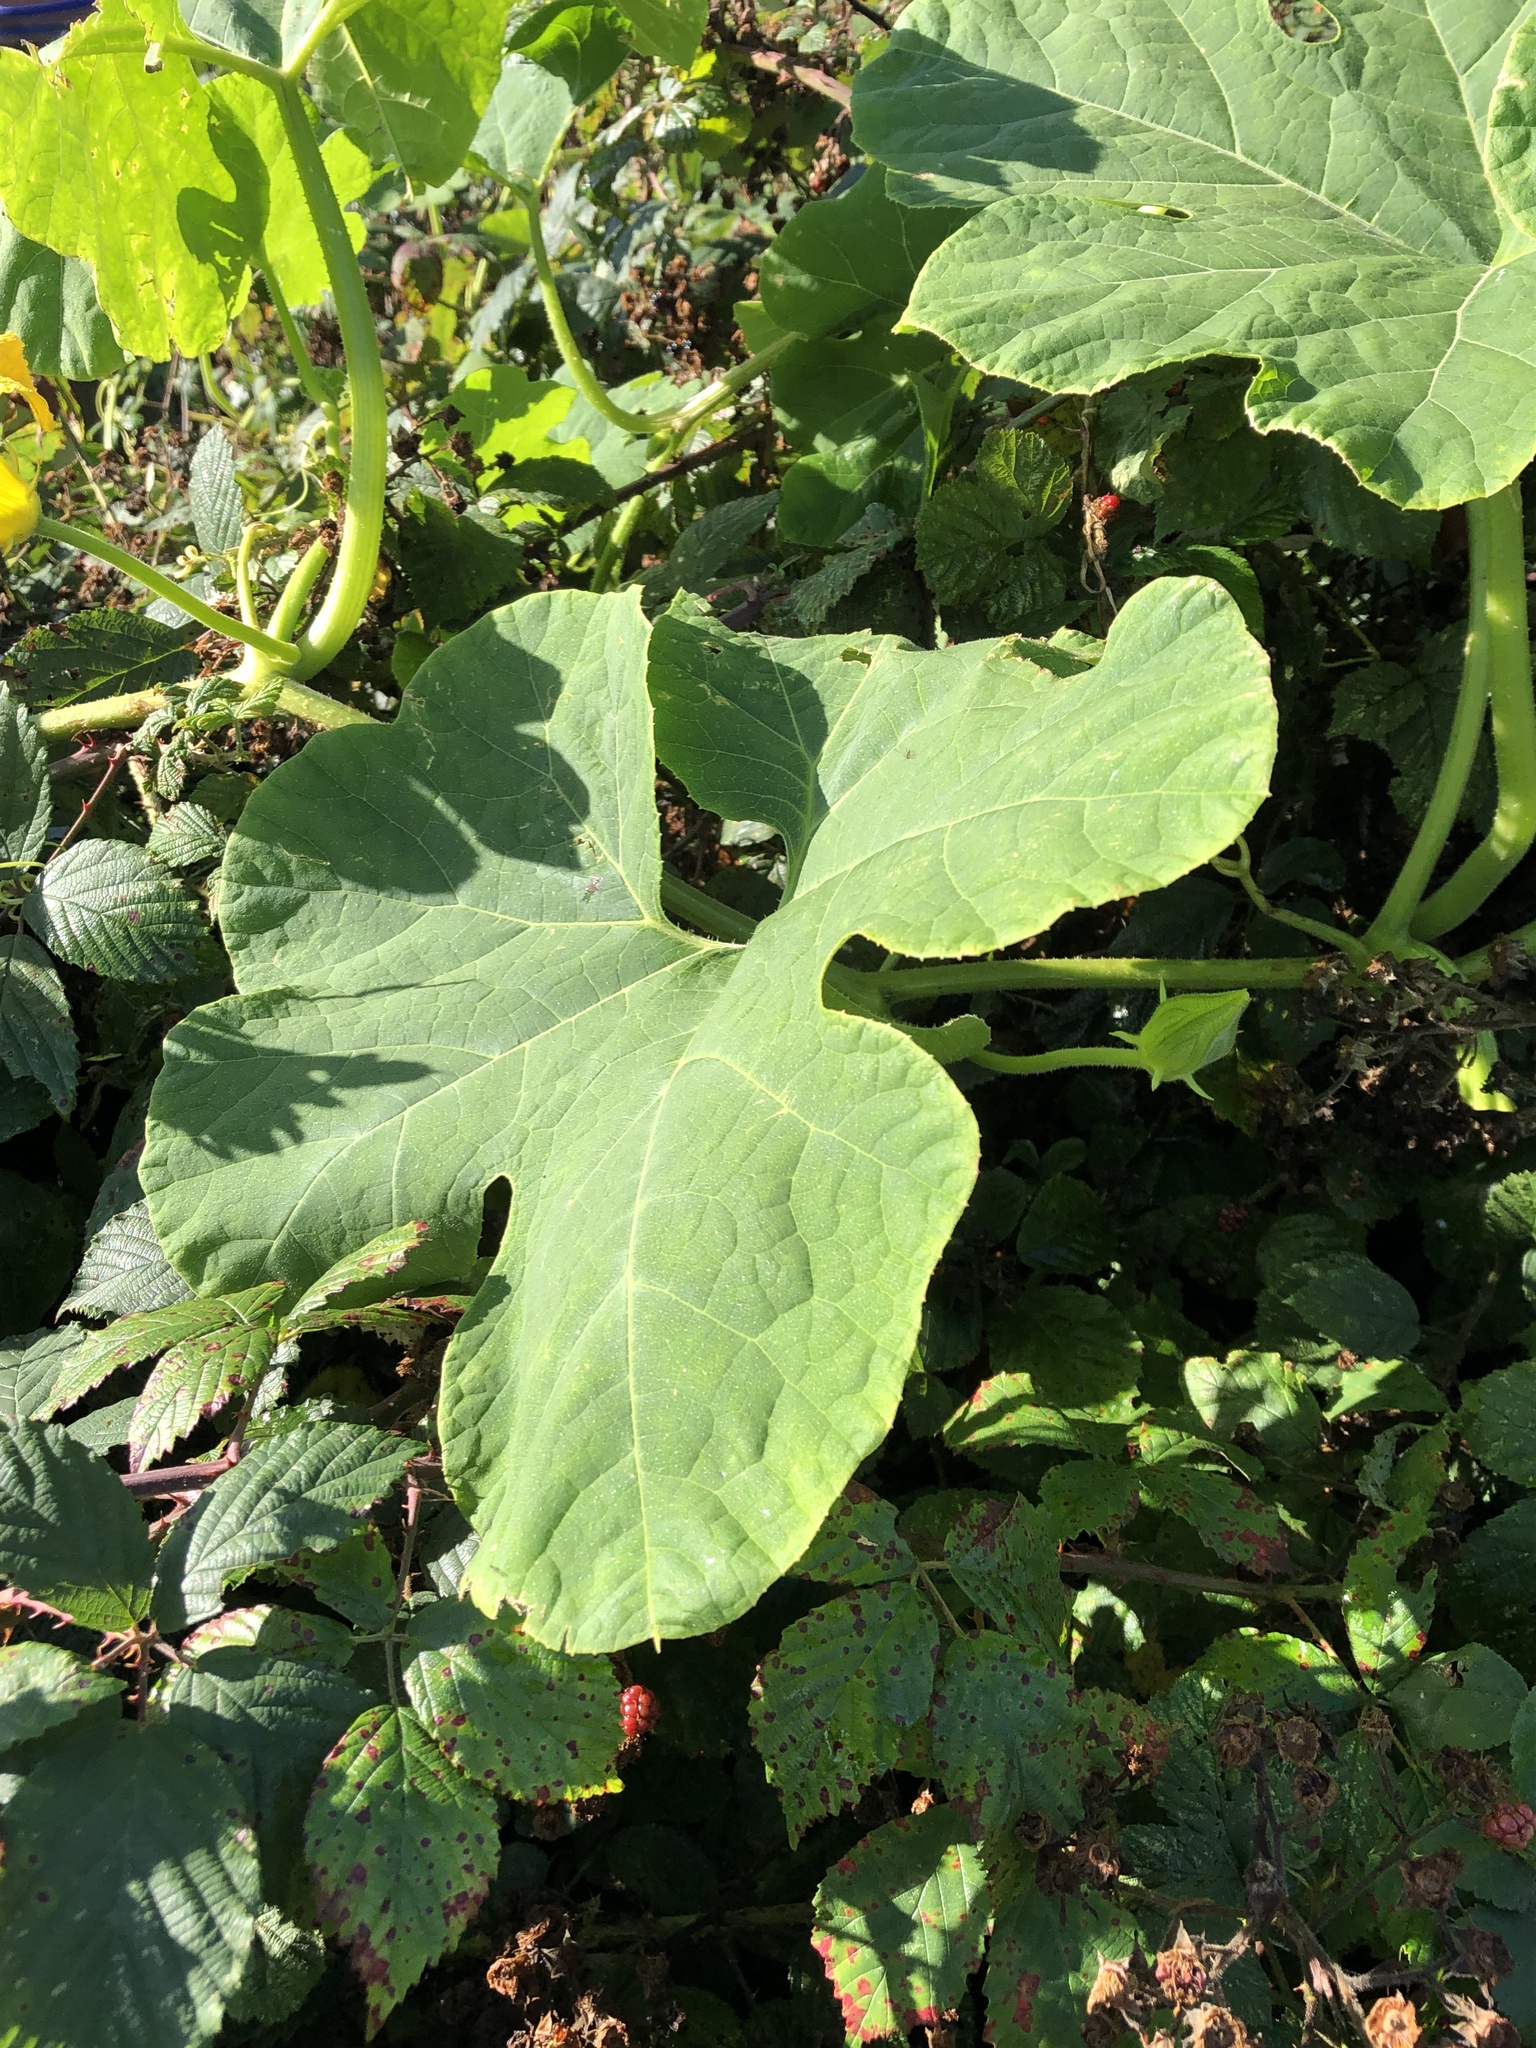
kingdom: Plantae
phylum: Tracheophyta
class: Magnoliopsida
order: Cucurbitales
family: Cucurbitaceae
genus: Cucurbita
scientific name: Cucurbita pepo
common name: Marrow
